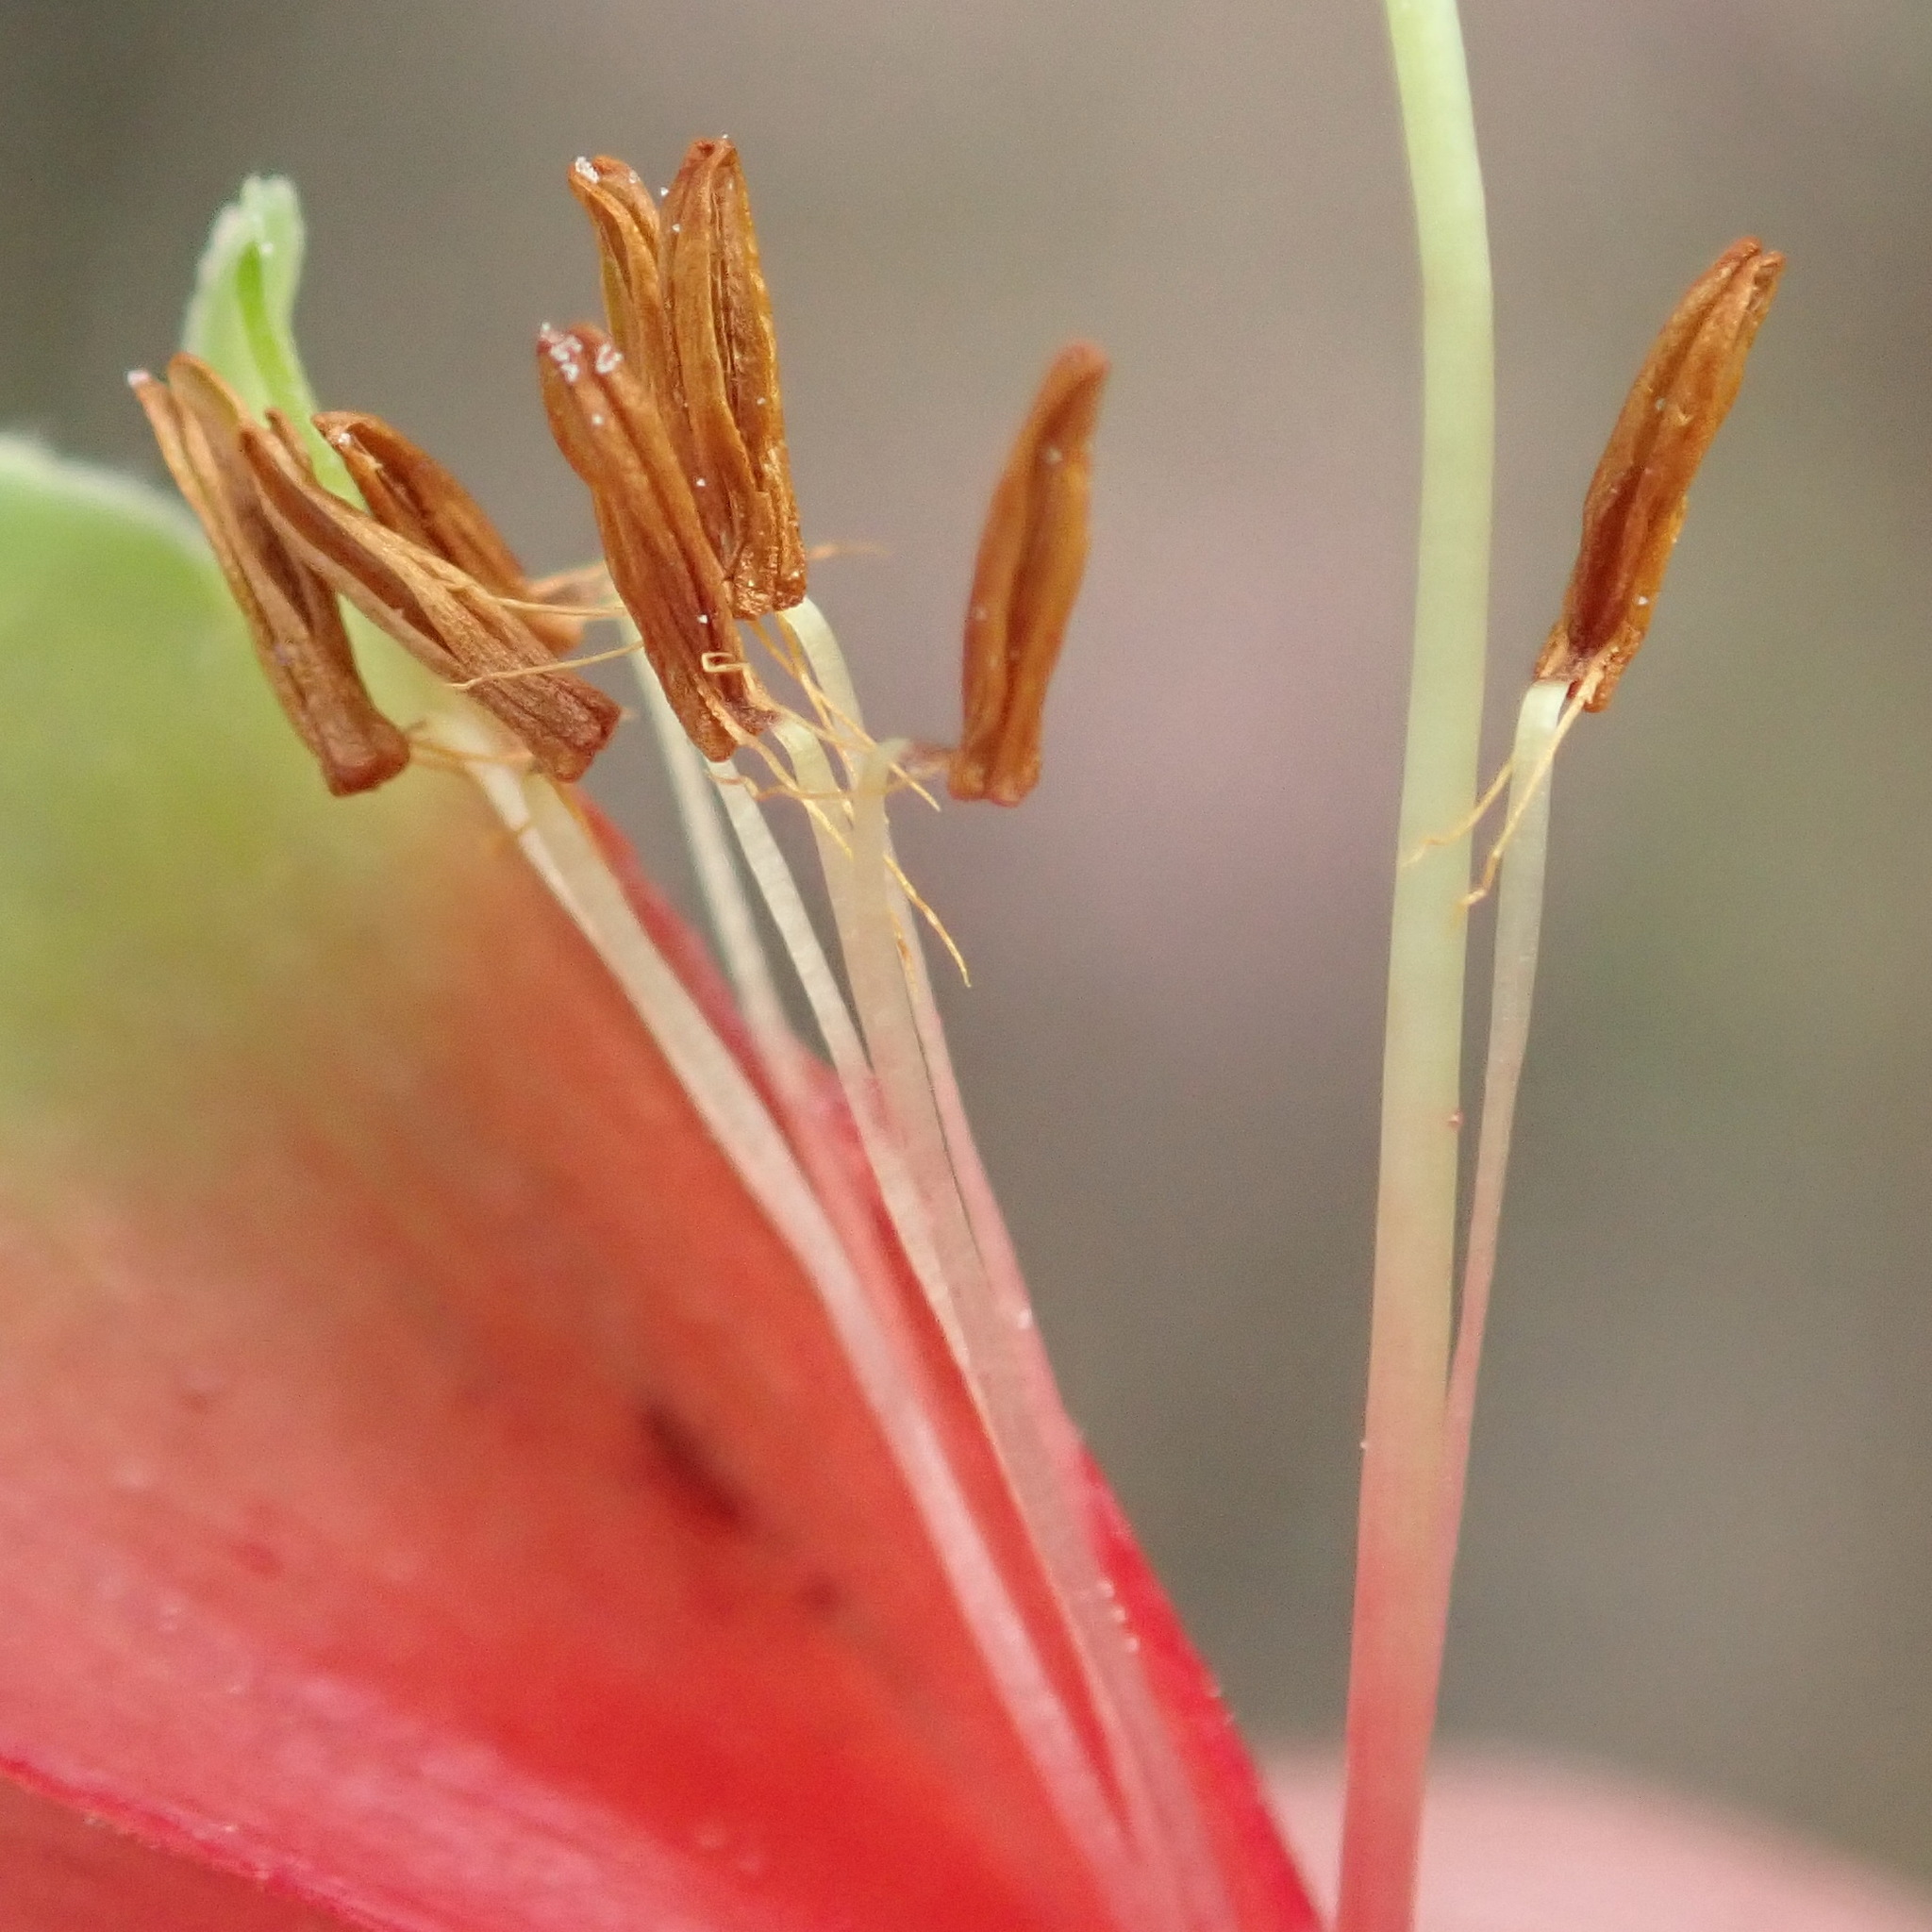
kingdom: Plantae
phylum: Tracheophyta
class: Magnoliopsida
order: Ericales
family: Ericaceae
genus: Erica
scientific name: Erica discolor
